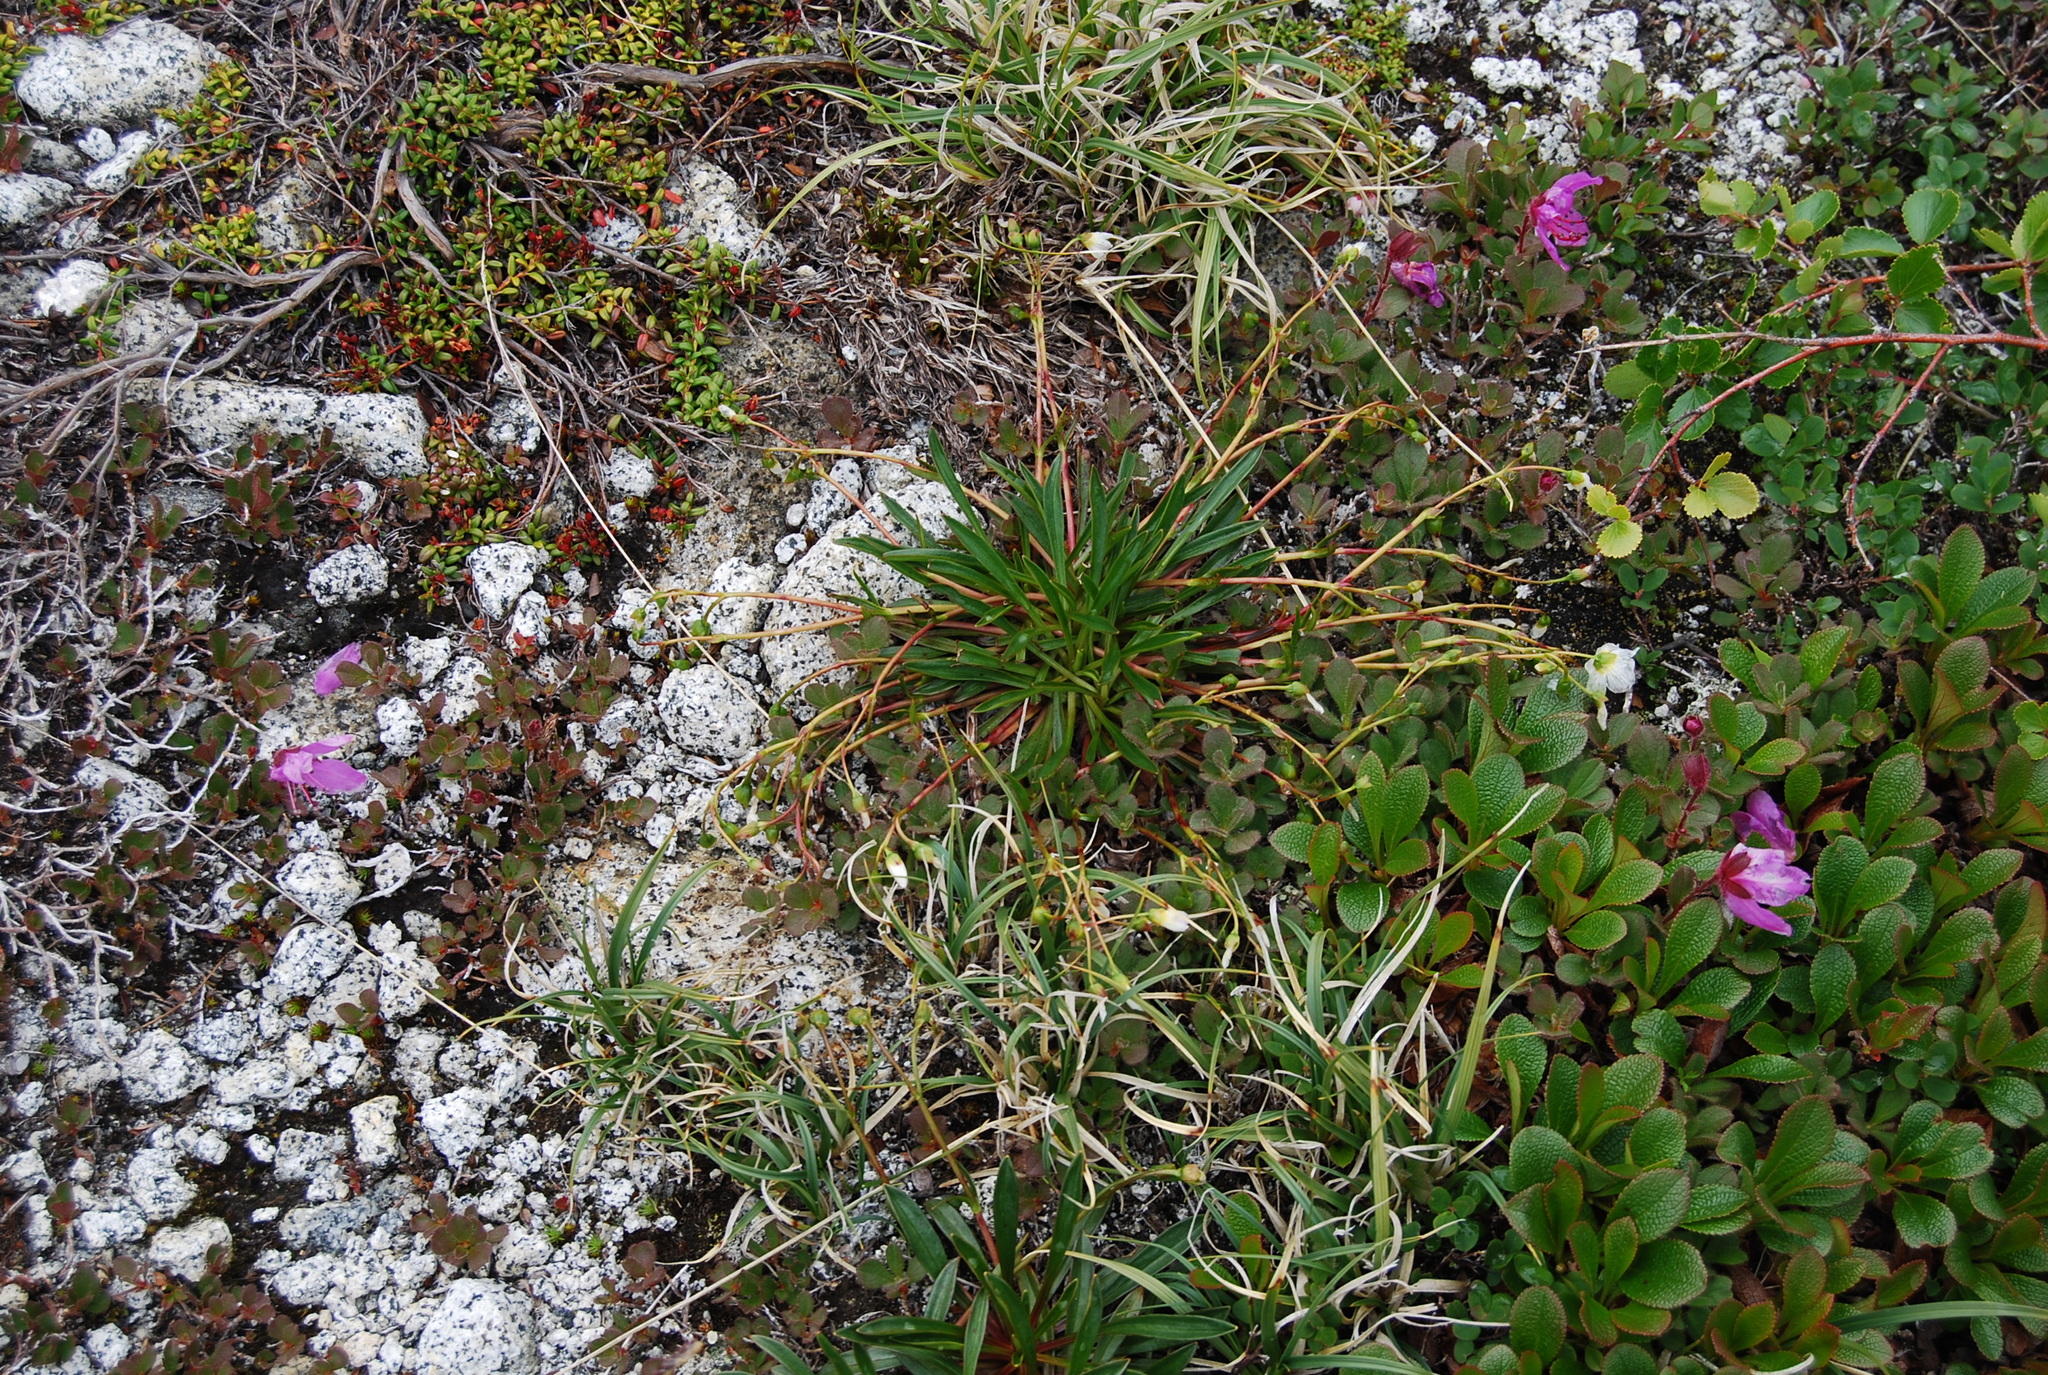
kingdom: Plantae
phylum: Tracheophyta
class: Magnoliopsida
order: Caryophyllales
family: Montiaceae
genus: Claytonia
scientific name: Claytonia acutifolia
